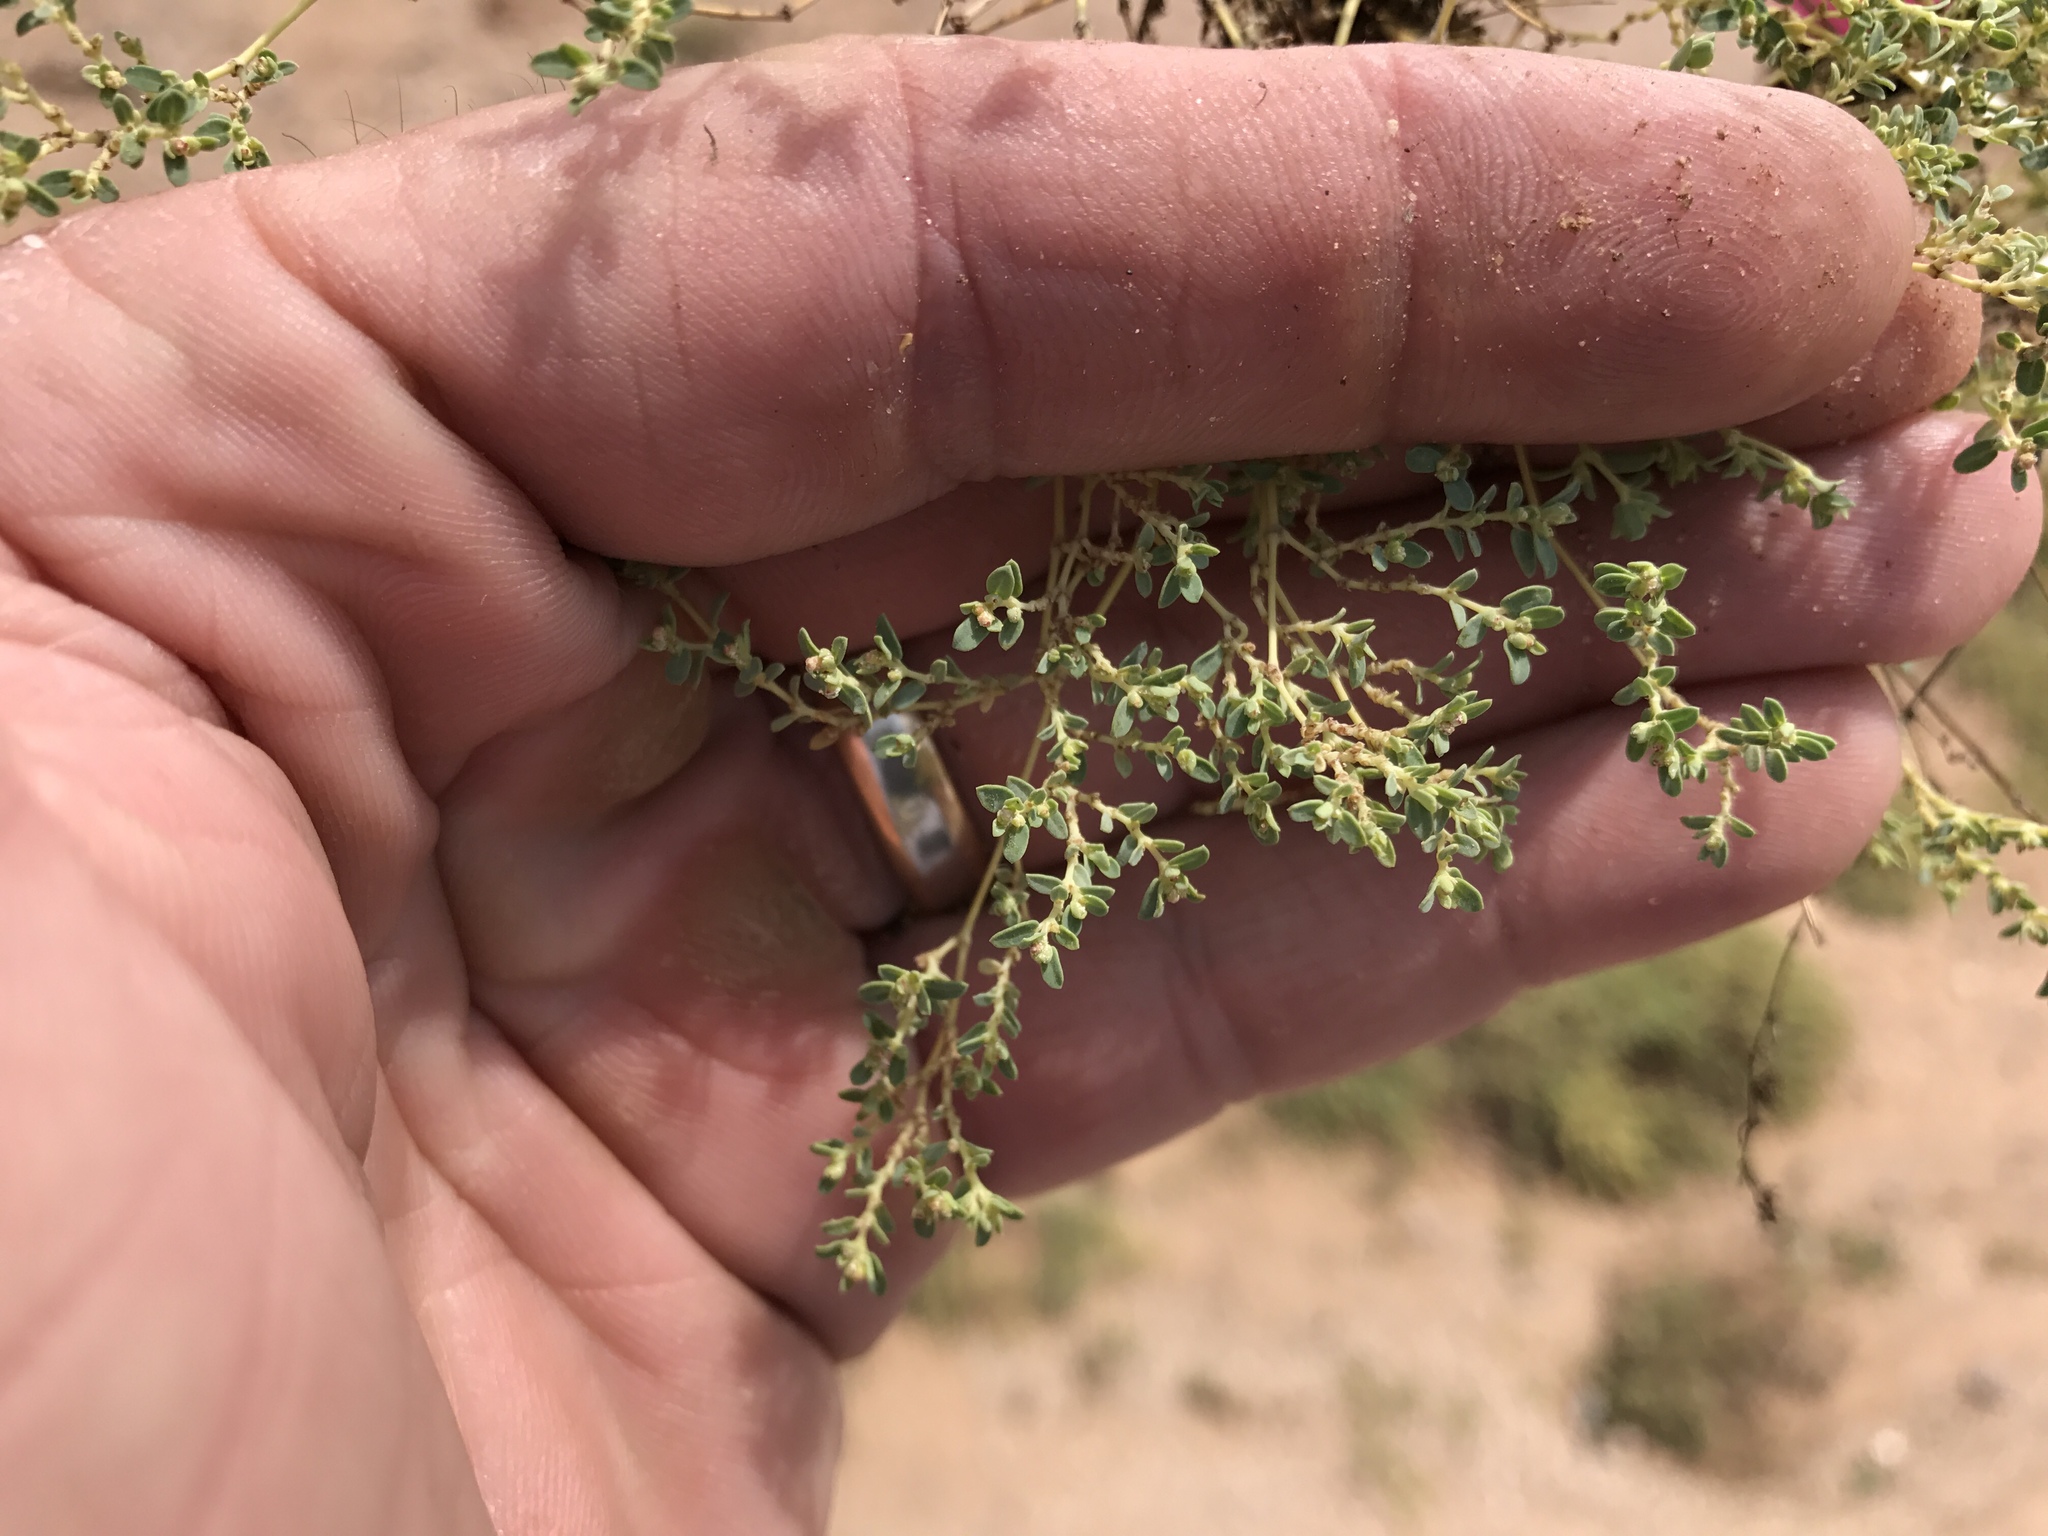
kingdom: Plantae
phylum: Tracheophyta
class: Magnoliopsida
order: Malpighiales
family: Euphorbiaceae
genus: Euphorbia
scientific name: Euphorbia polycarpa
